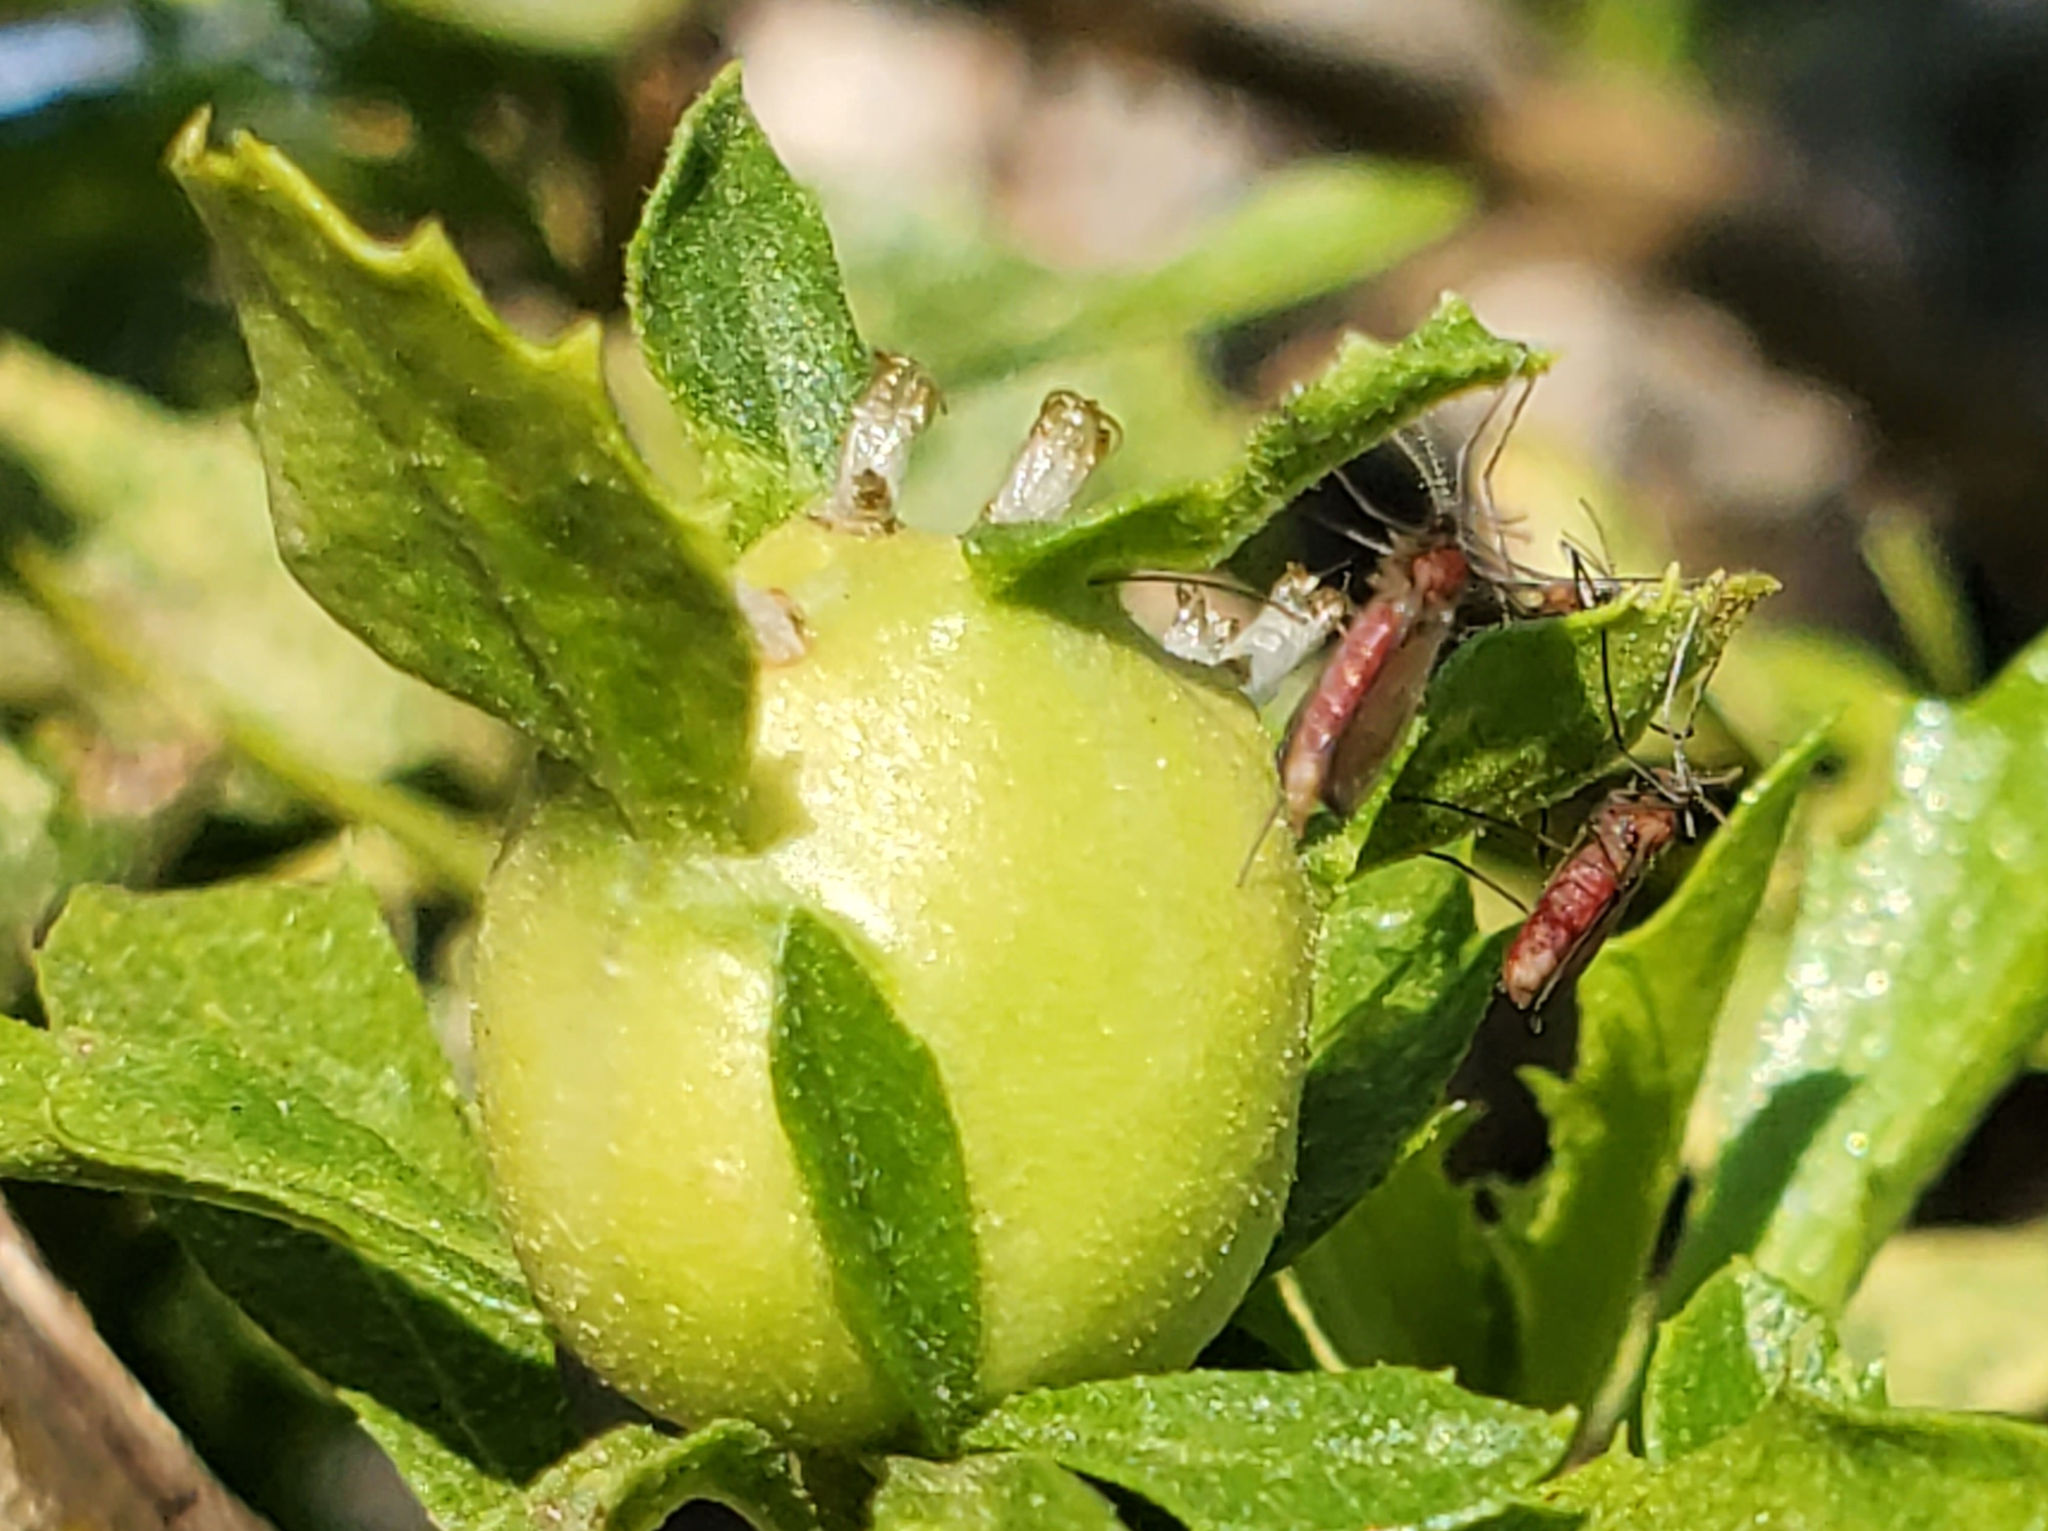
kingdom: Animalia
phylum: Arthropoda
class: Insecta
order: Diptera
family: Cecidomyiidae
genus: Rhopalomyia
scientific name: Rhopalomyia californica
